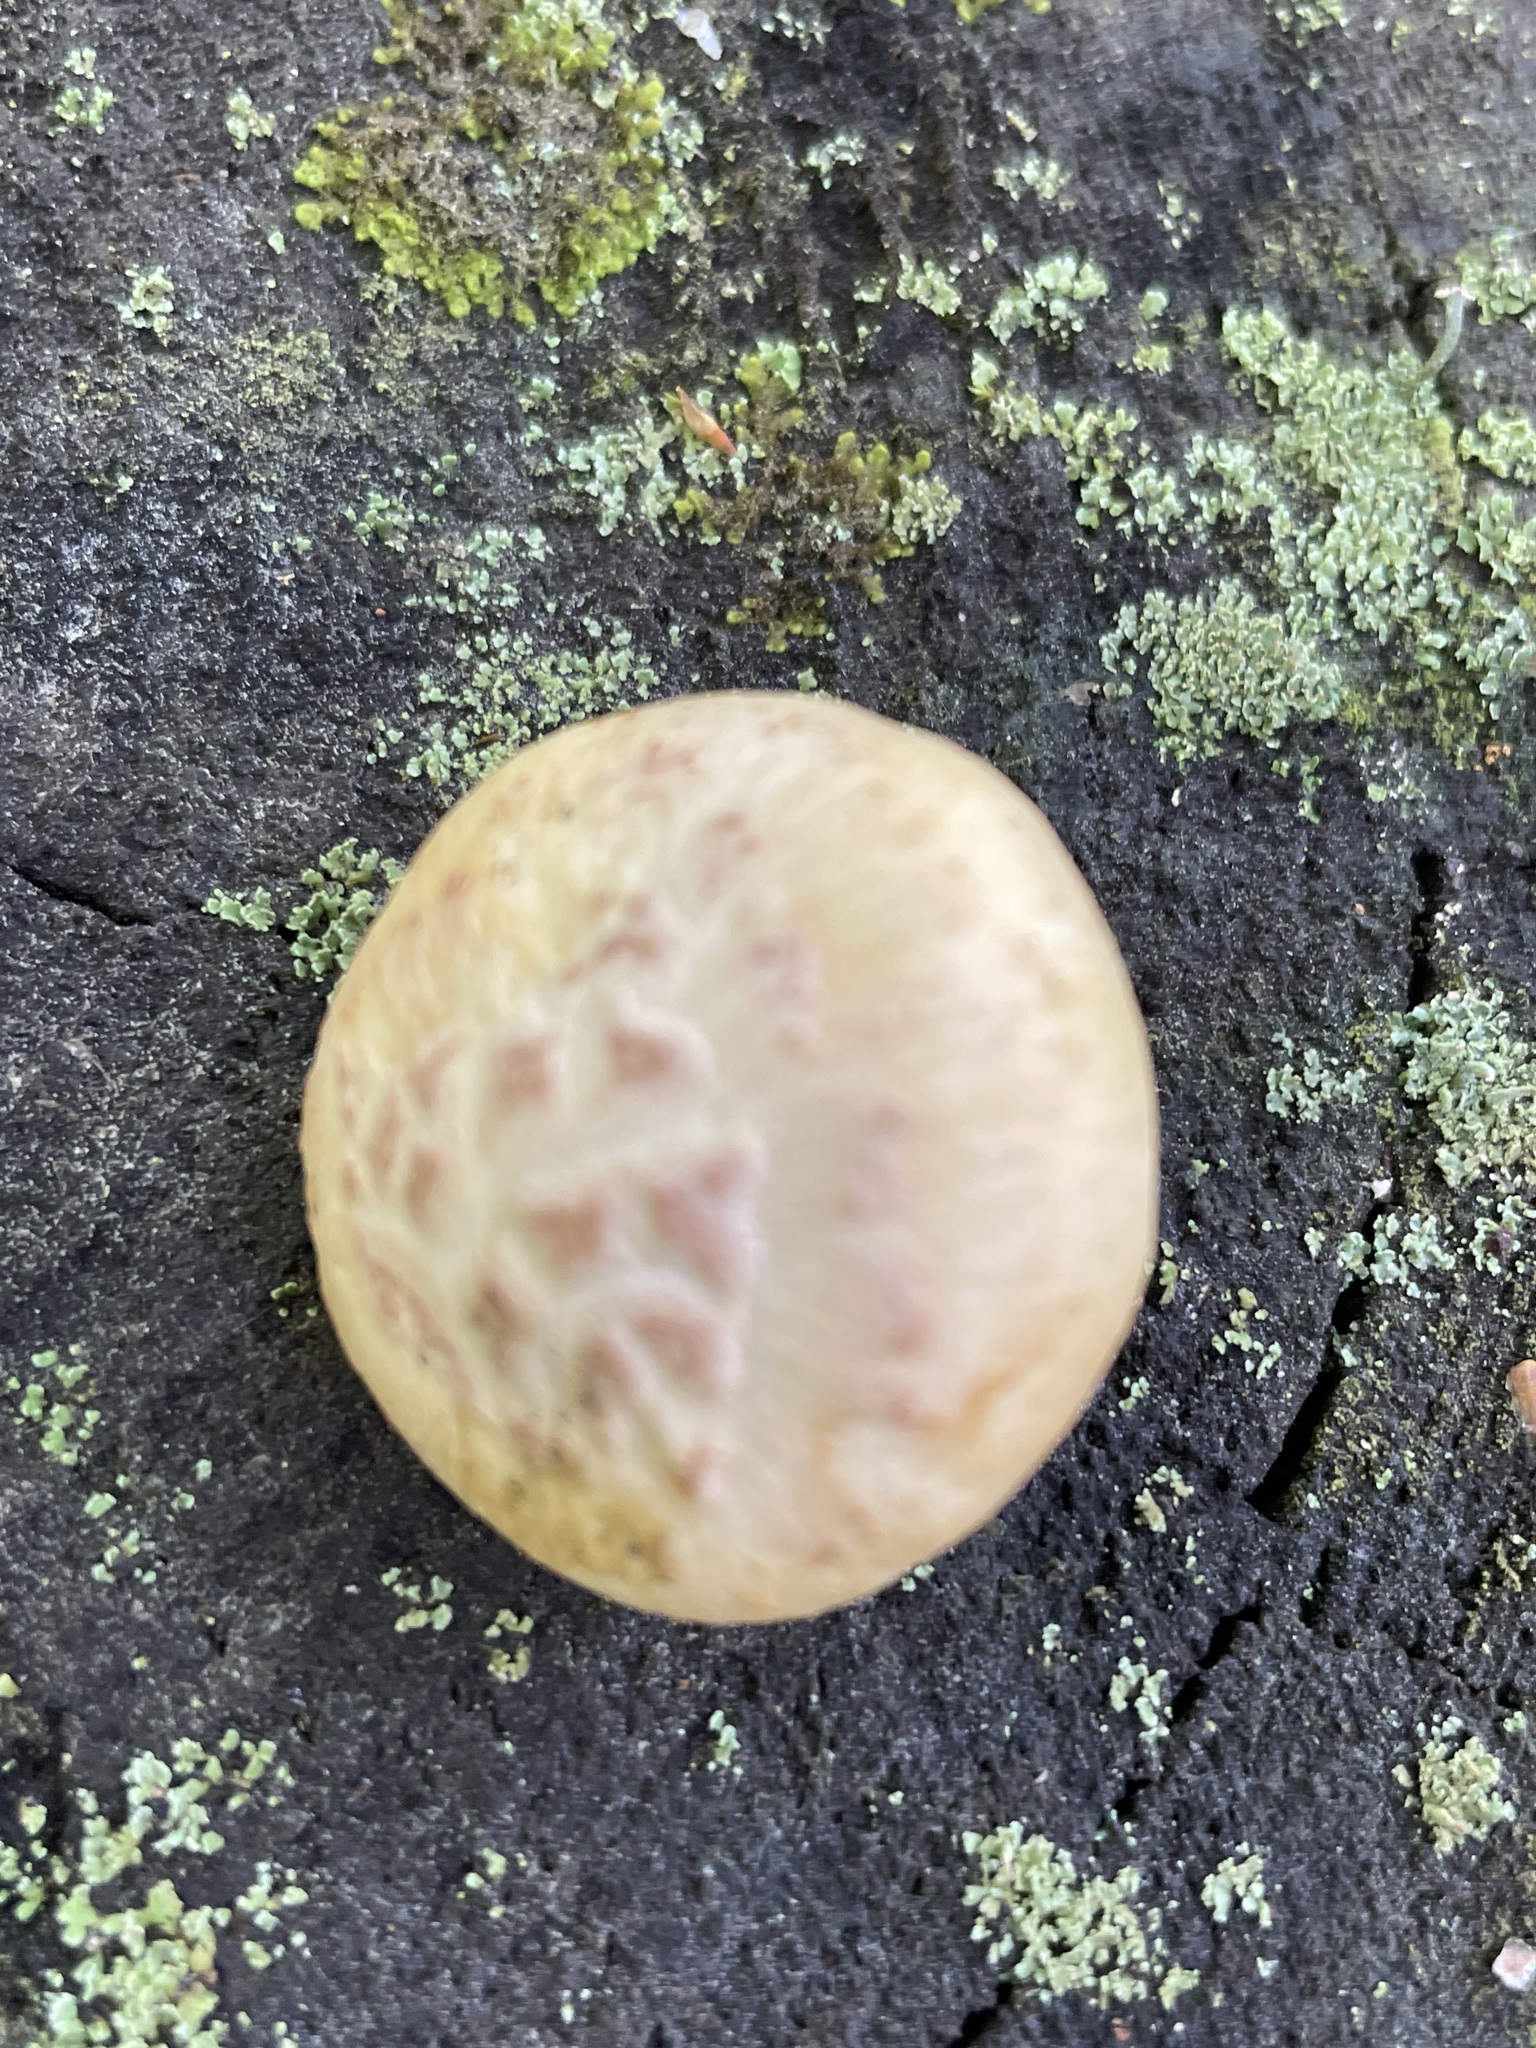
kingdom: Fungi
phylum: Basidiomycota
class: Agaricomycetes
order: Gloeophyllales
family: Gloeophyllaceae
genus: Neolentinus
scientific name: Neolentinus lepideus
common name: Scaly sawgill
